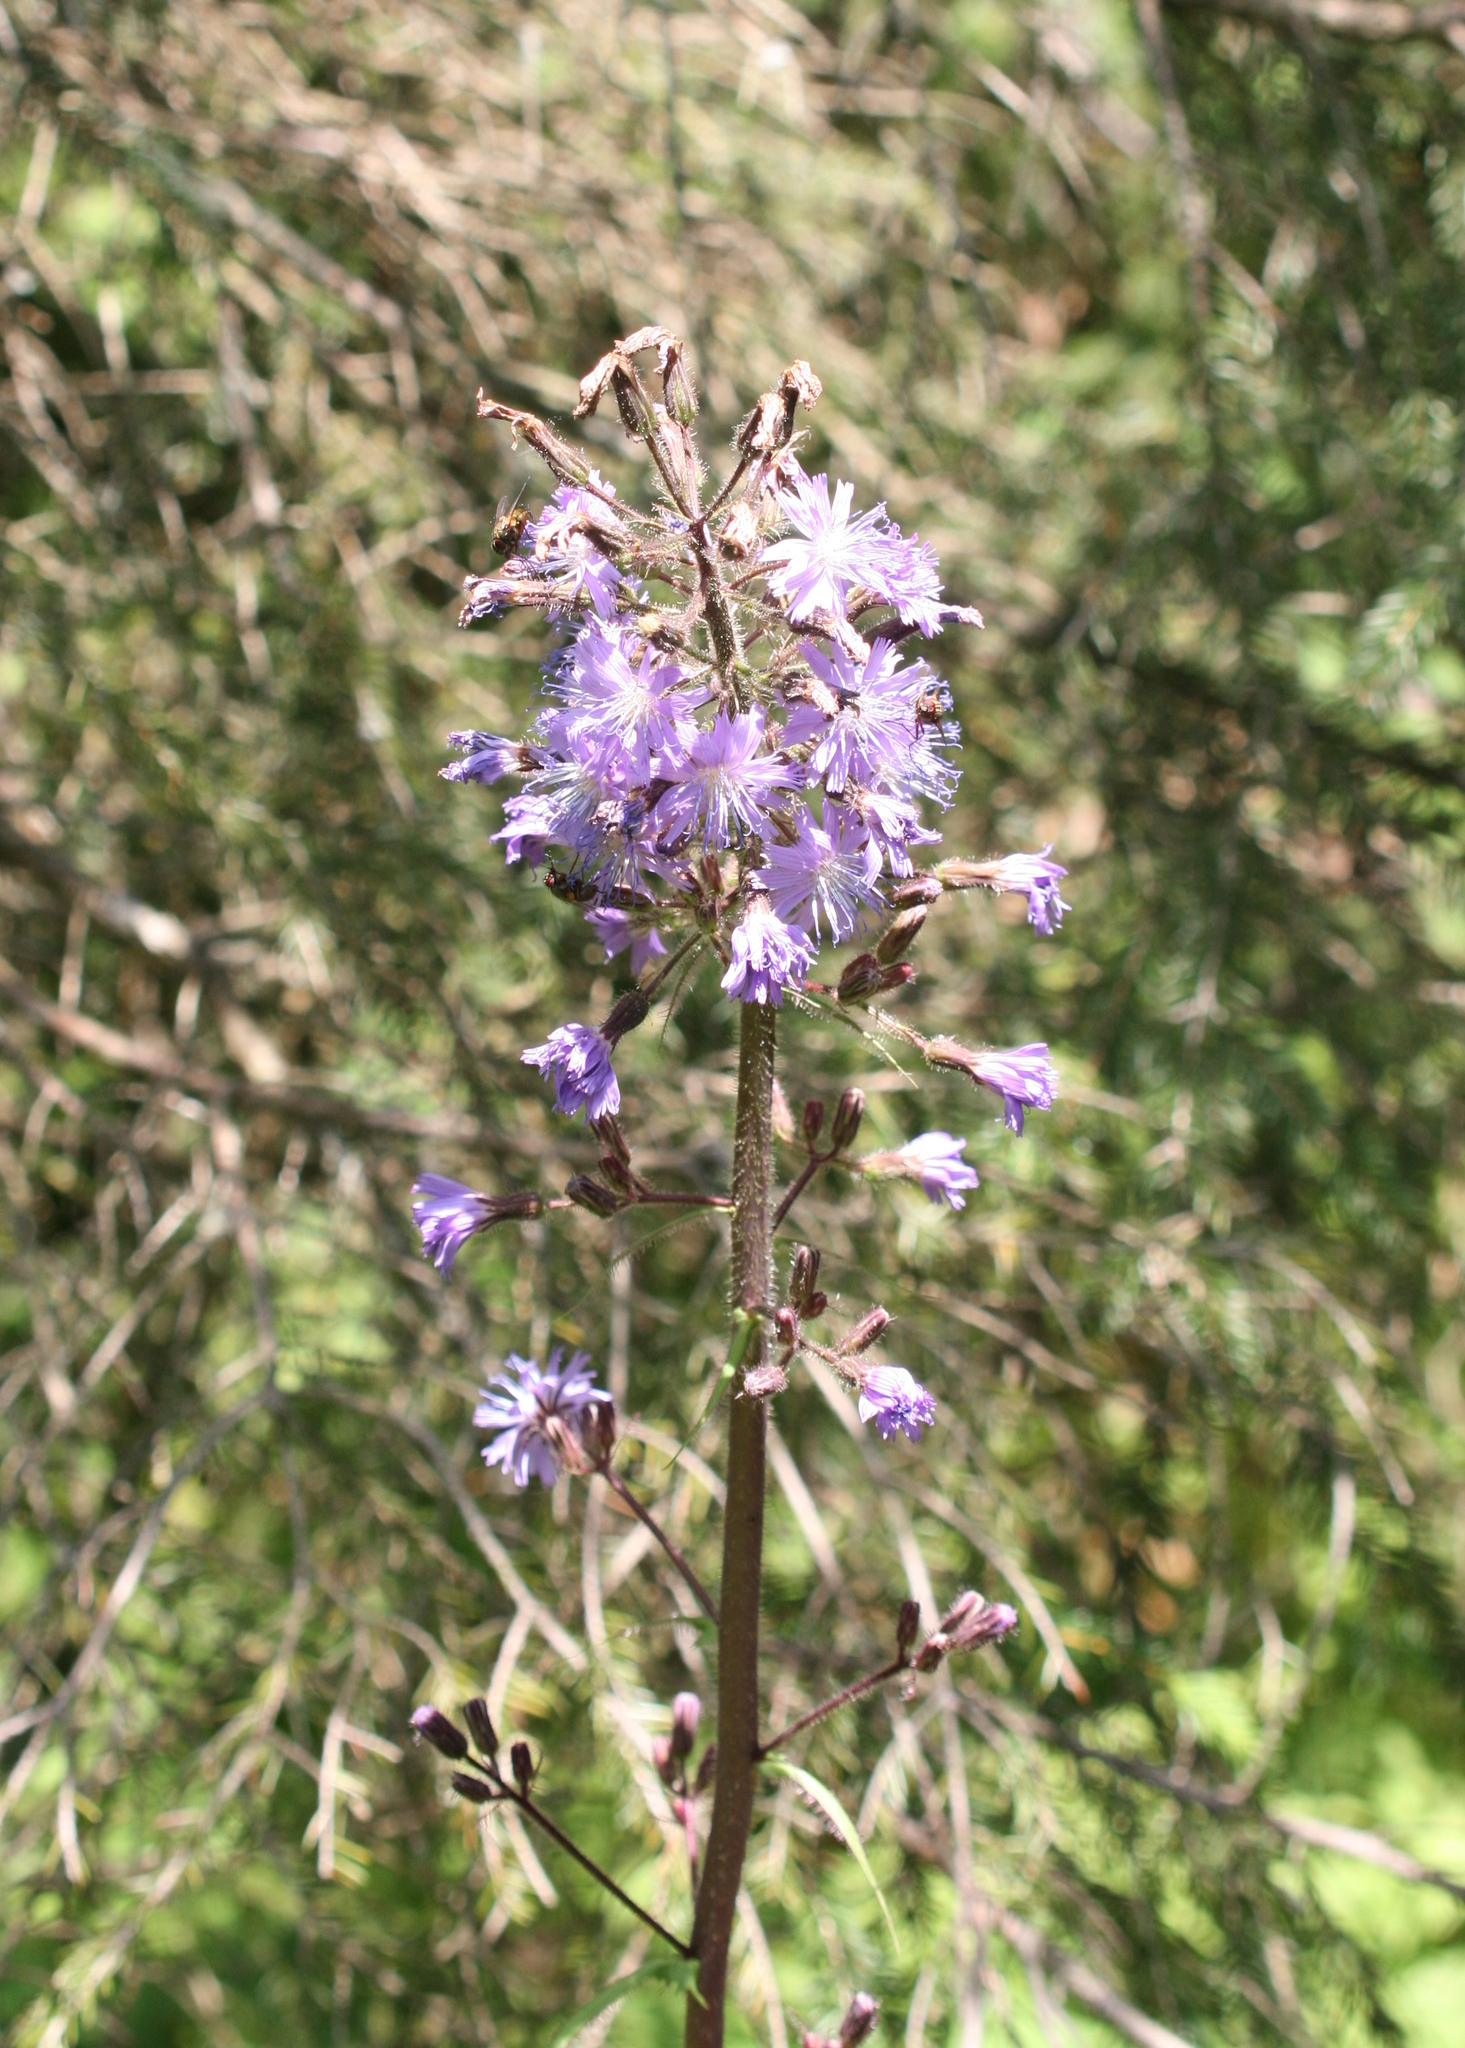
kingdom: Plantae
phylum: Tracheophyta
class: Magnoliopsida
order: Asterales
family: Asteraceae
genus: Cicerbita
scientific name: Cicerbita alpina
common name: Alpine blue-sow-thistle
